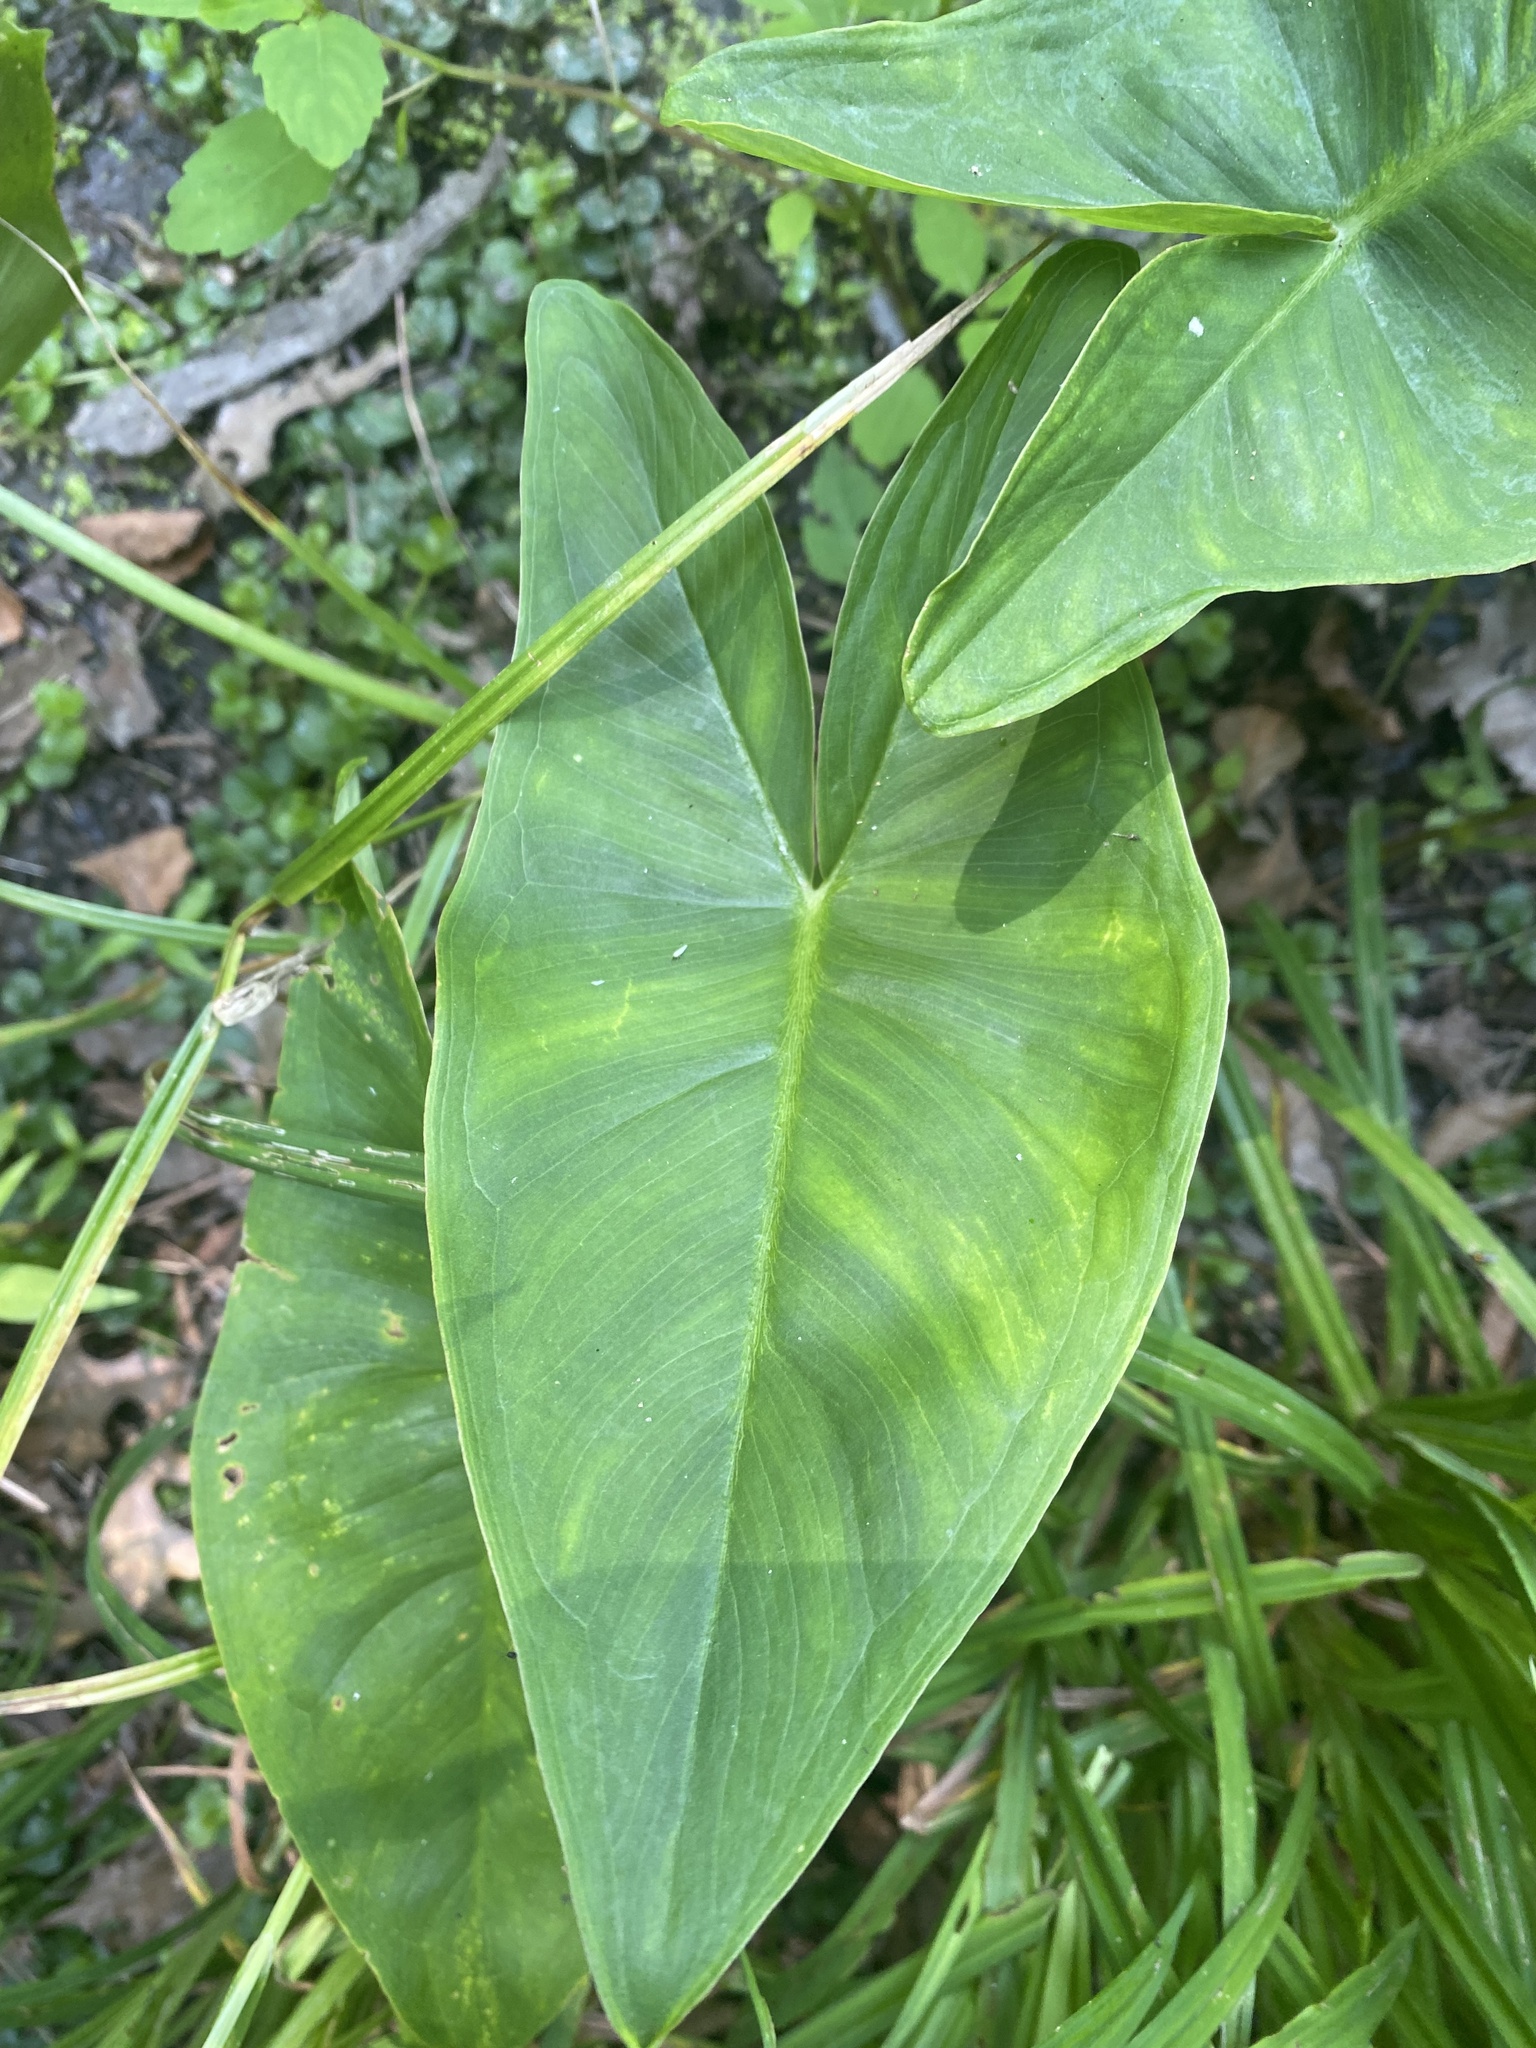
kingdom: Plantae
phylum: Tracheophyta
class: Liliopsida
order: Alismatales
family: Araceae
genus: Peltandra
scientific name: Peltandra virginica
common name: Arrow arum
